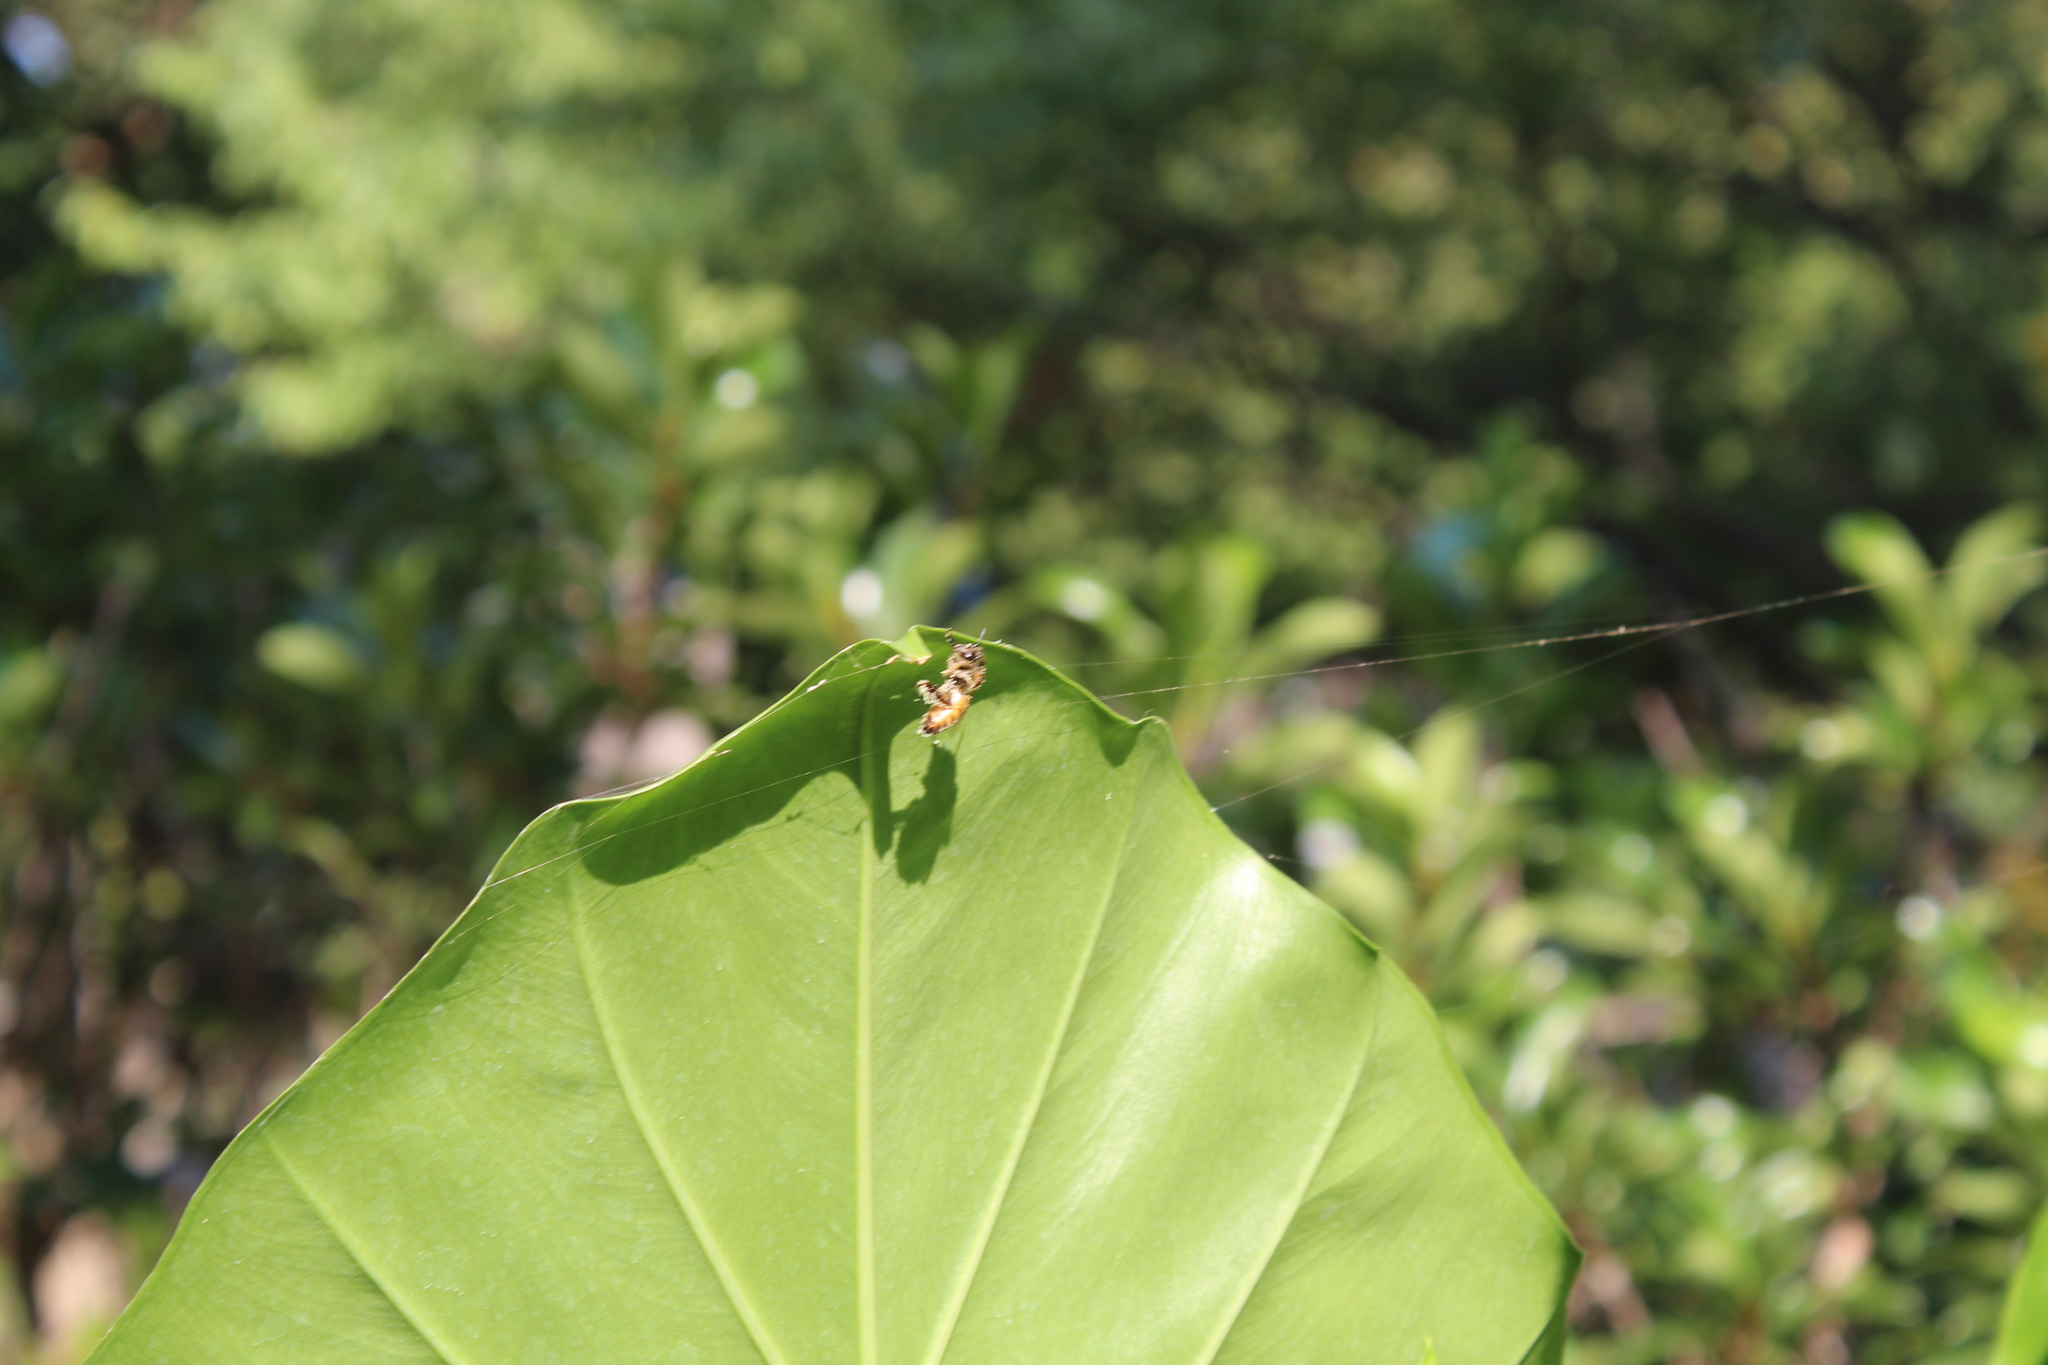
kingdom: Animalia
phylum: Arthropoda
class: Insecta
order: Hymenoptera
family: Apidae
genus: Apis
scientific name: Apis mellifera
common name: Honey bee
